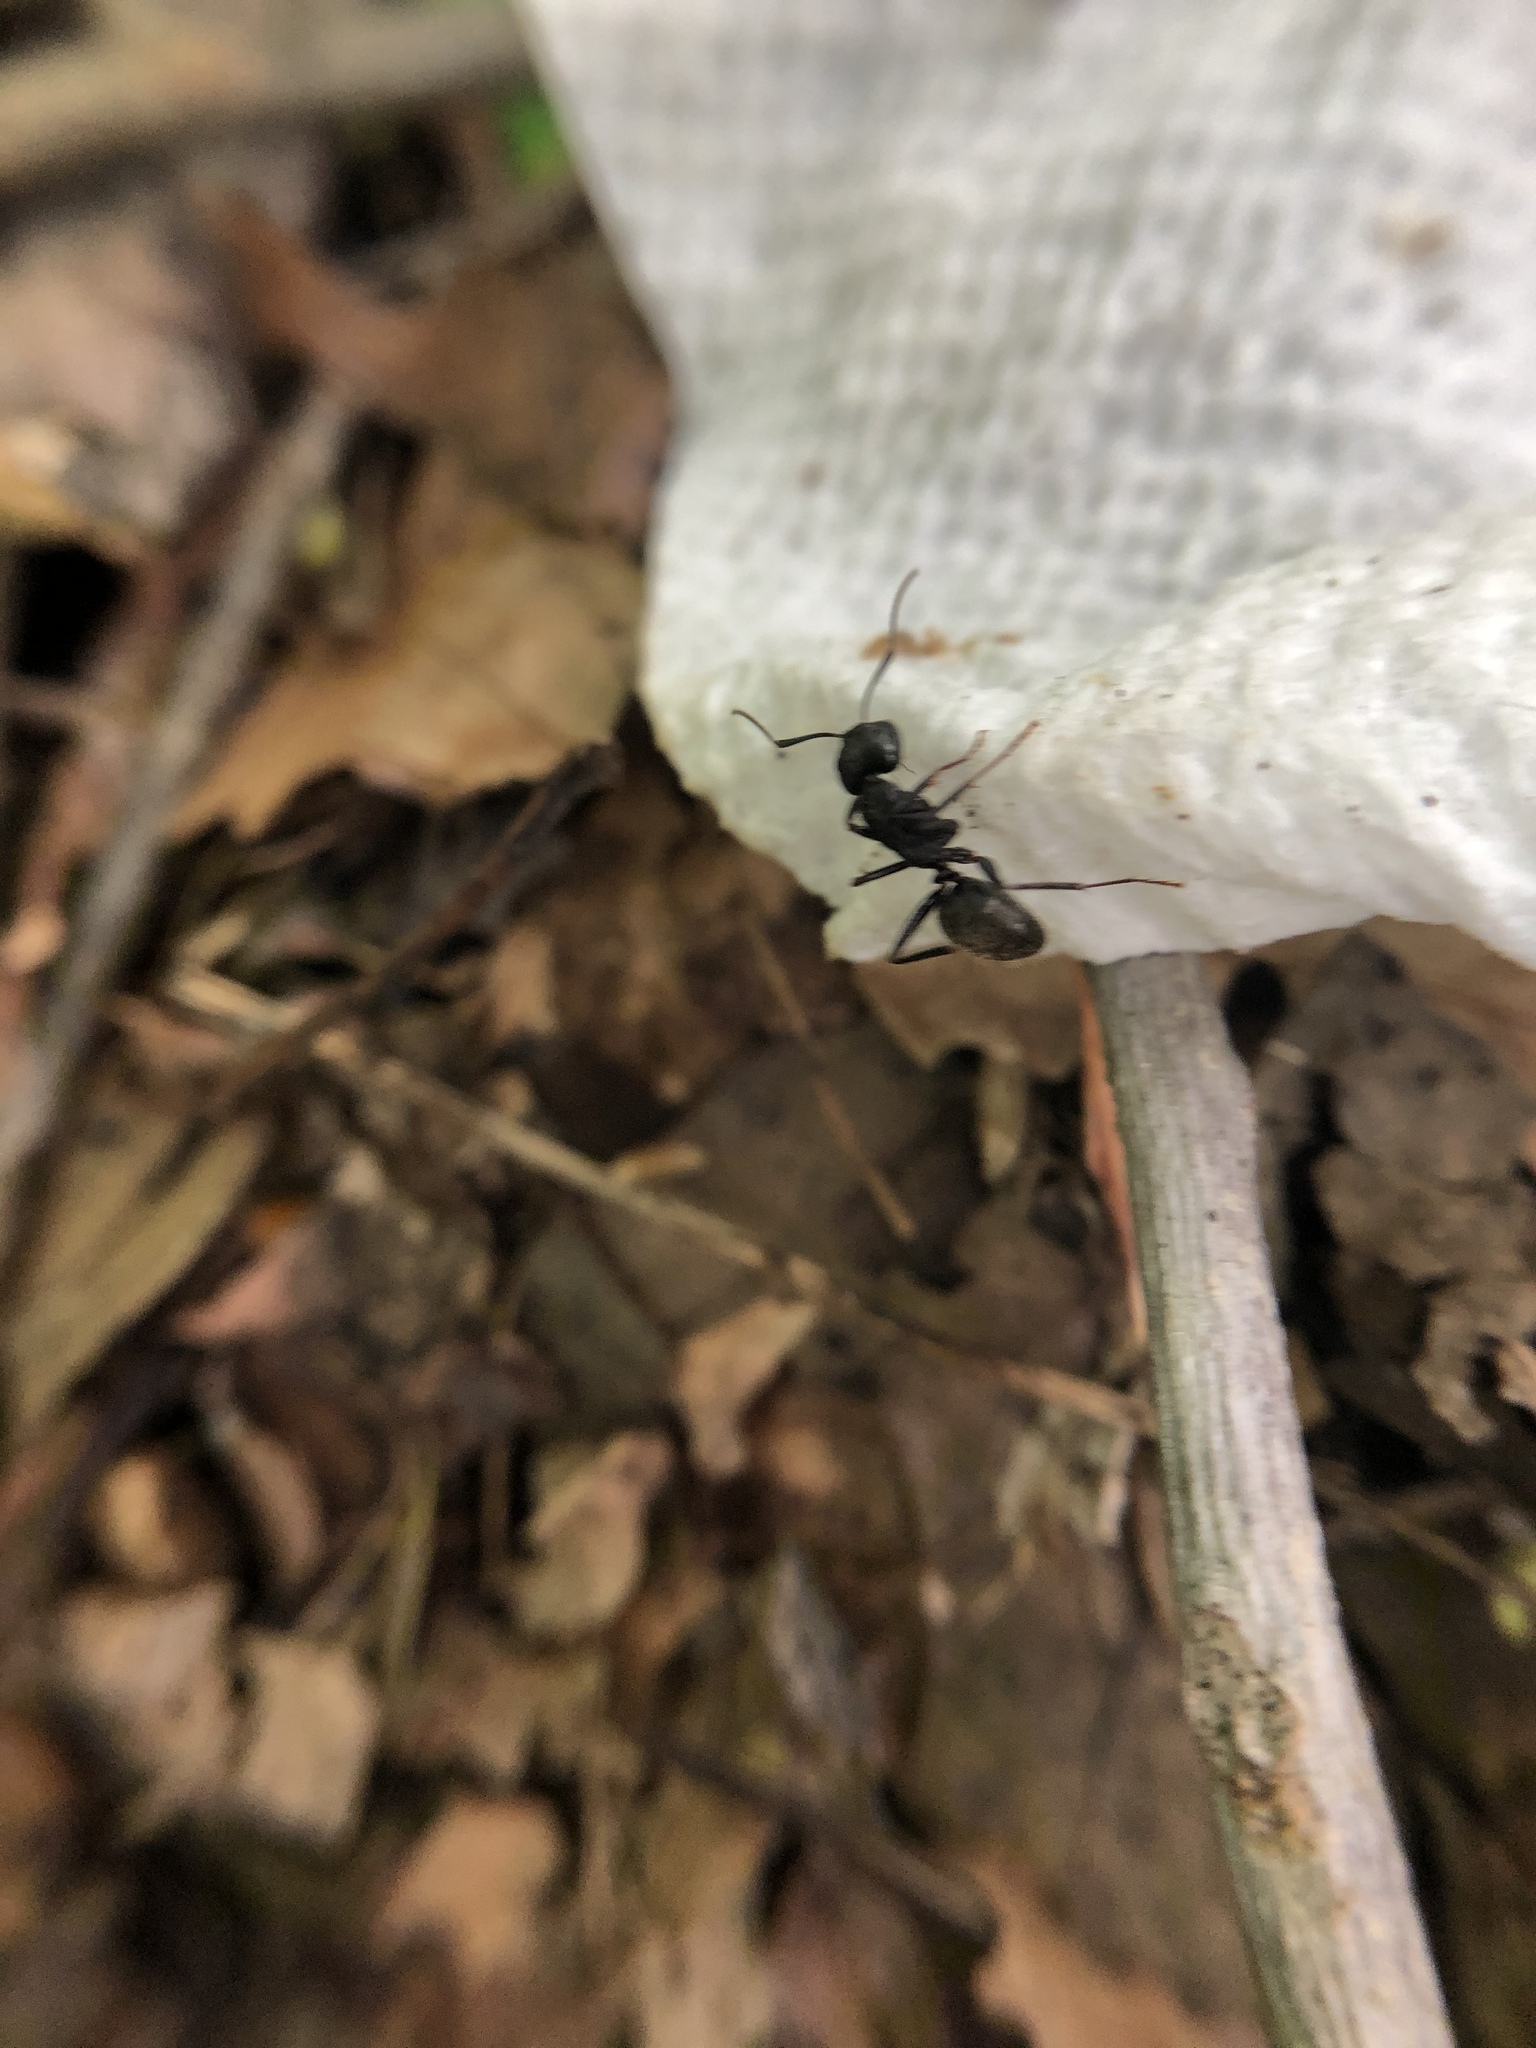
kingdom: Animalia
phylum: Arthropoda
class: Insecta
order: Hymenoptera
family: Formicidae
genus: Camponotus
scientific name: Camponotus pennsylvanicus
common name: Black carpenter ant
